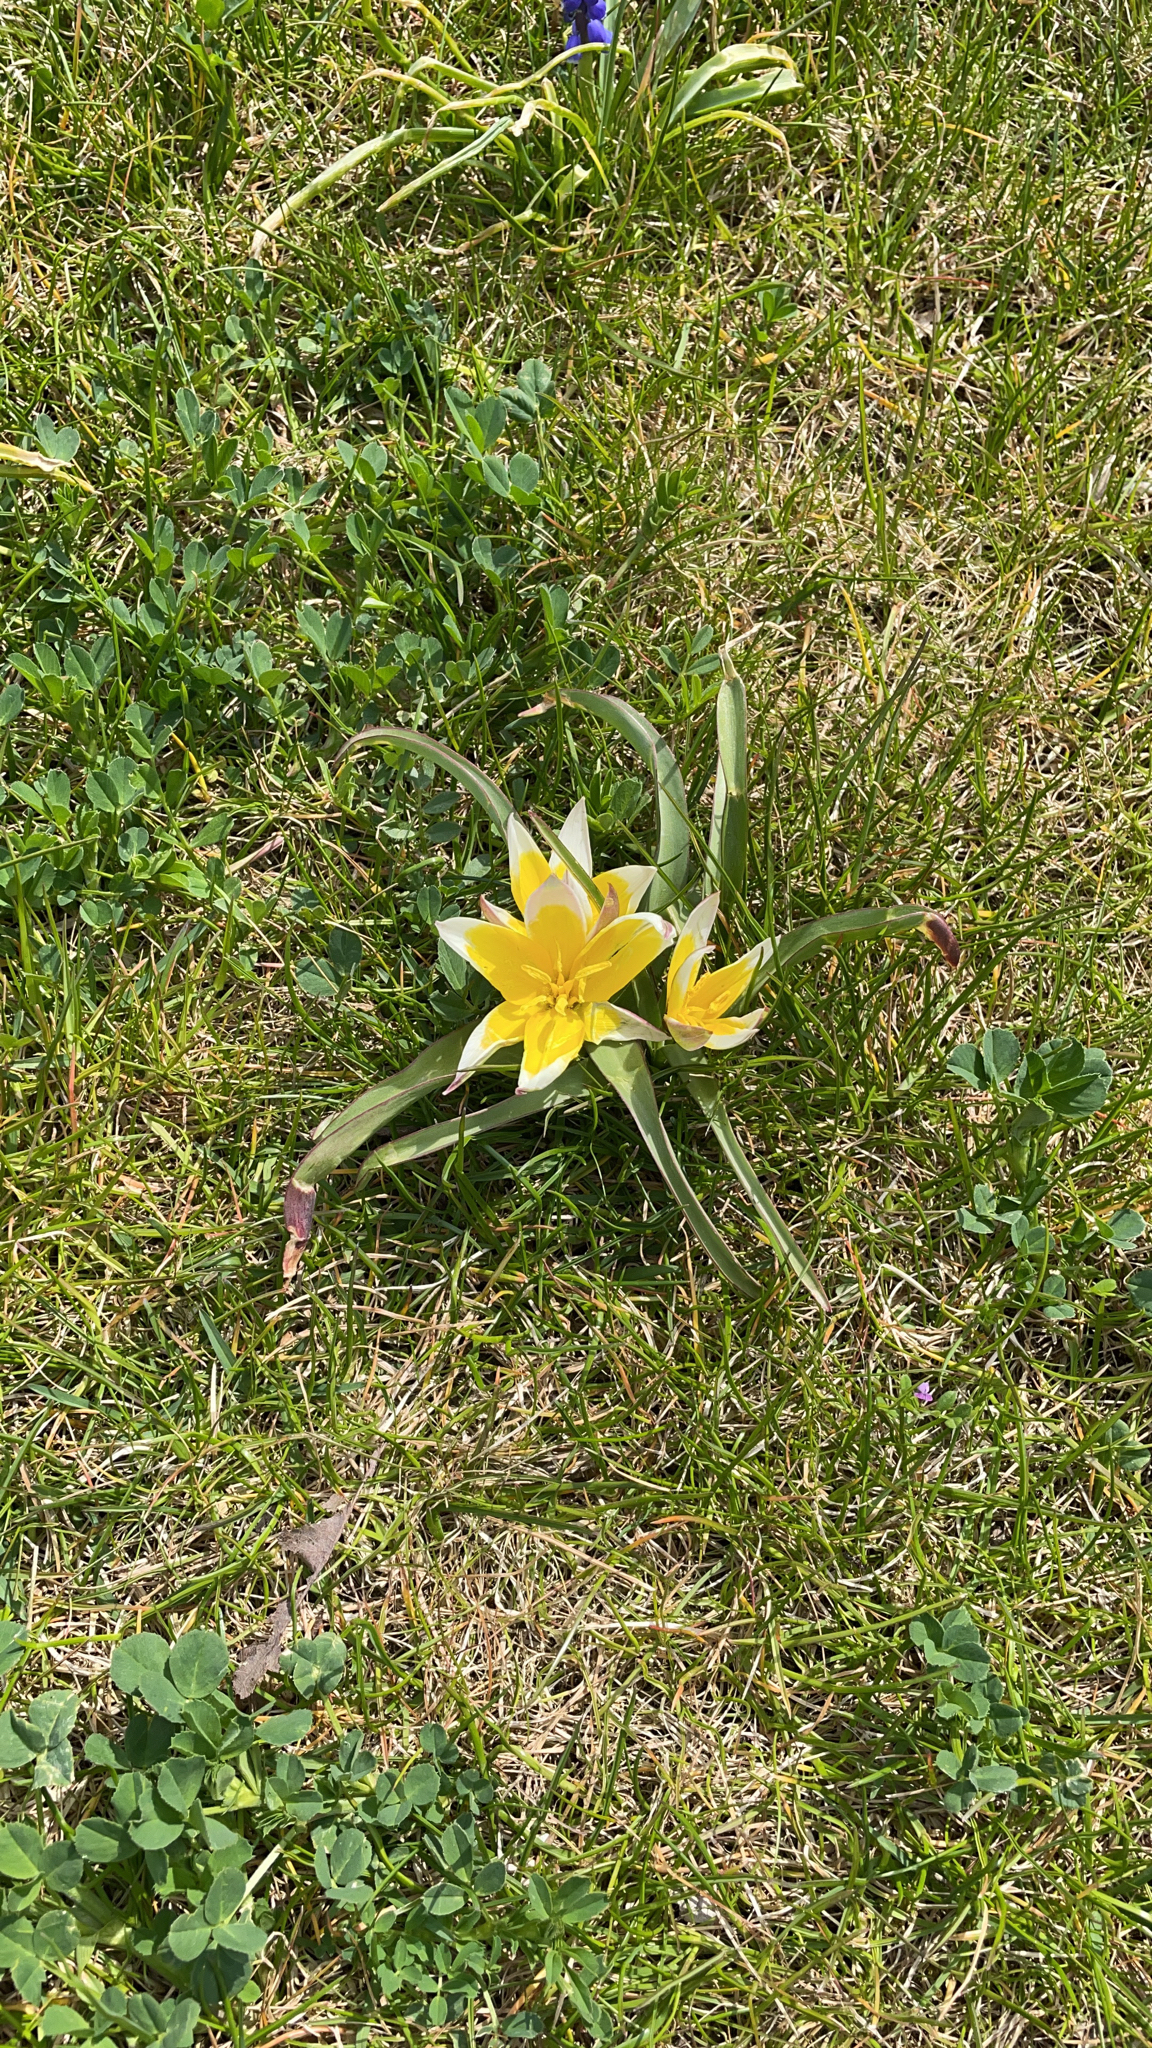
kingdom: Plantae
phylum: Tracheophyta
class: Liliopsida
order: Liliales
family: Liliaceae
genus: Tulipa
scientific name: Tulipa urumiensis
